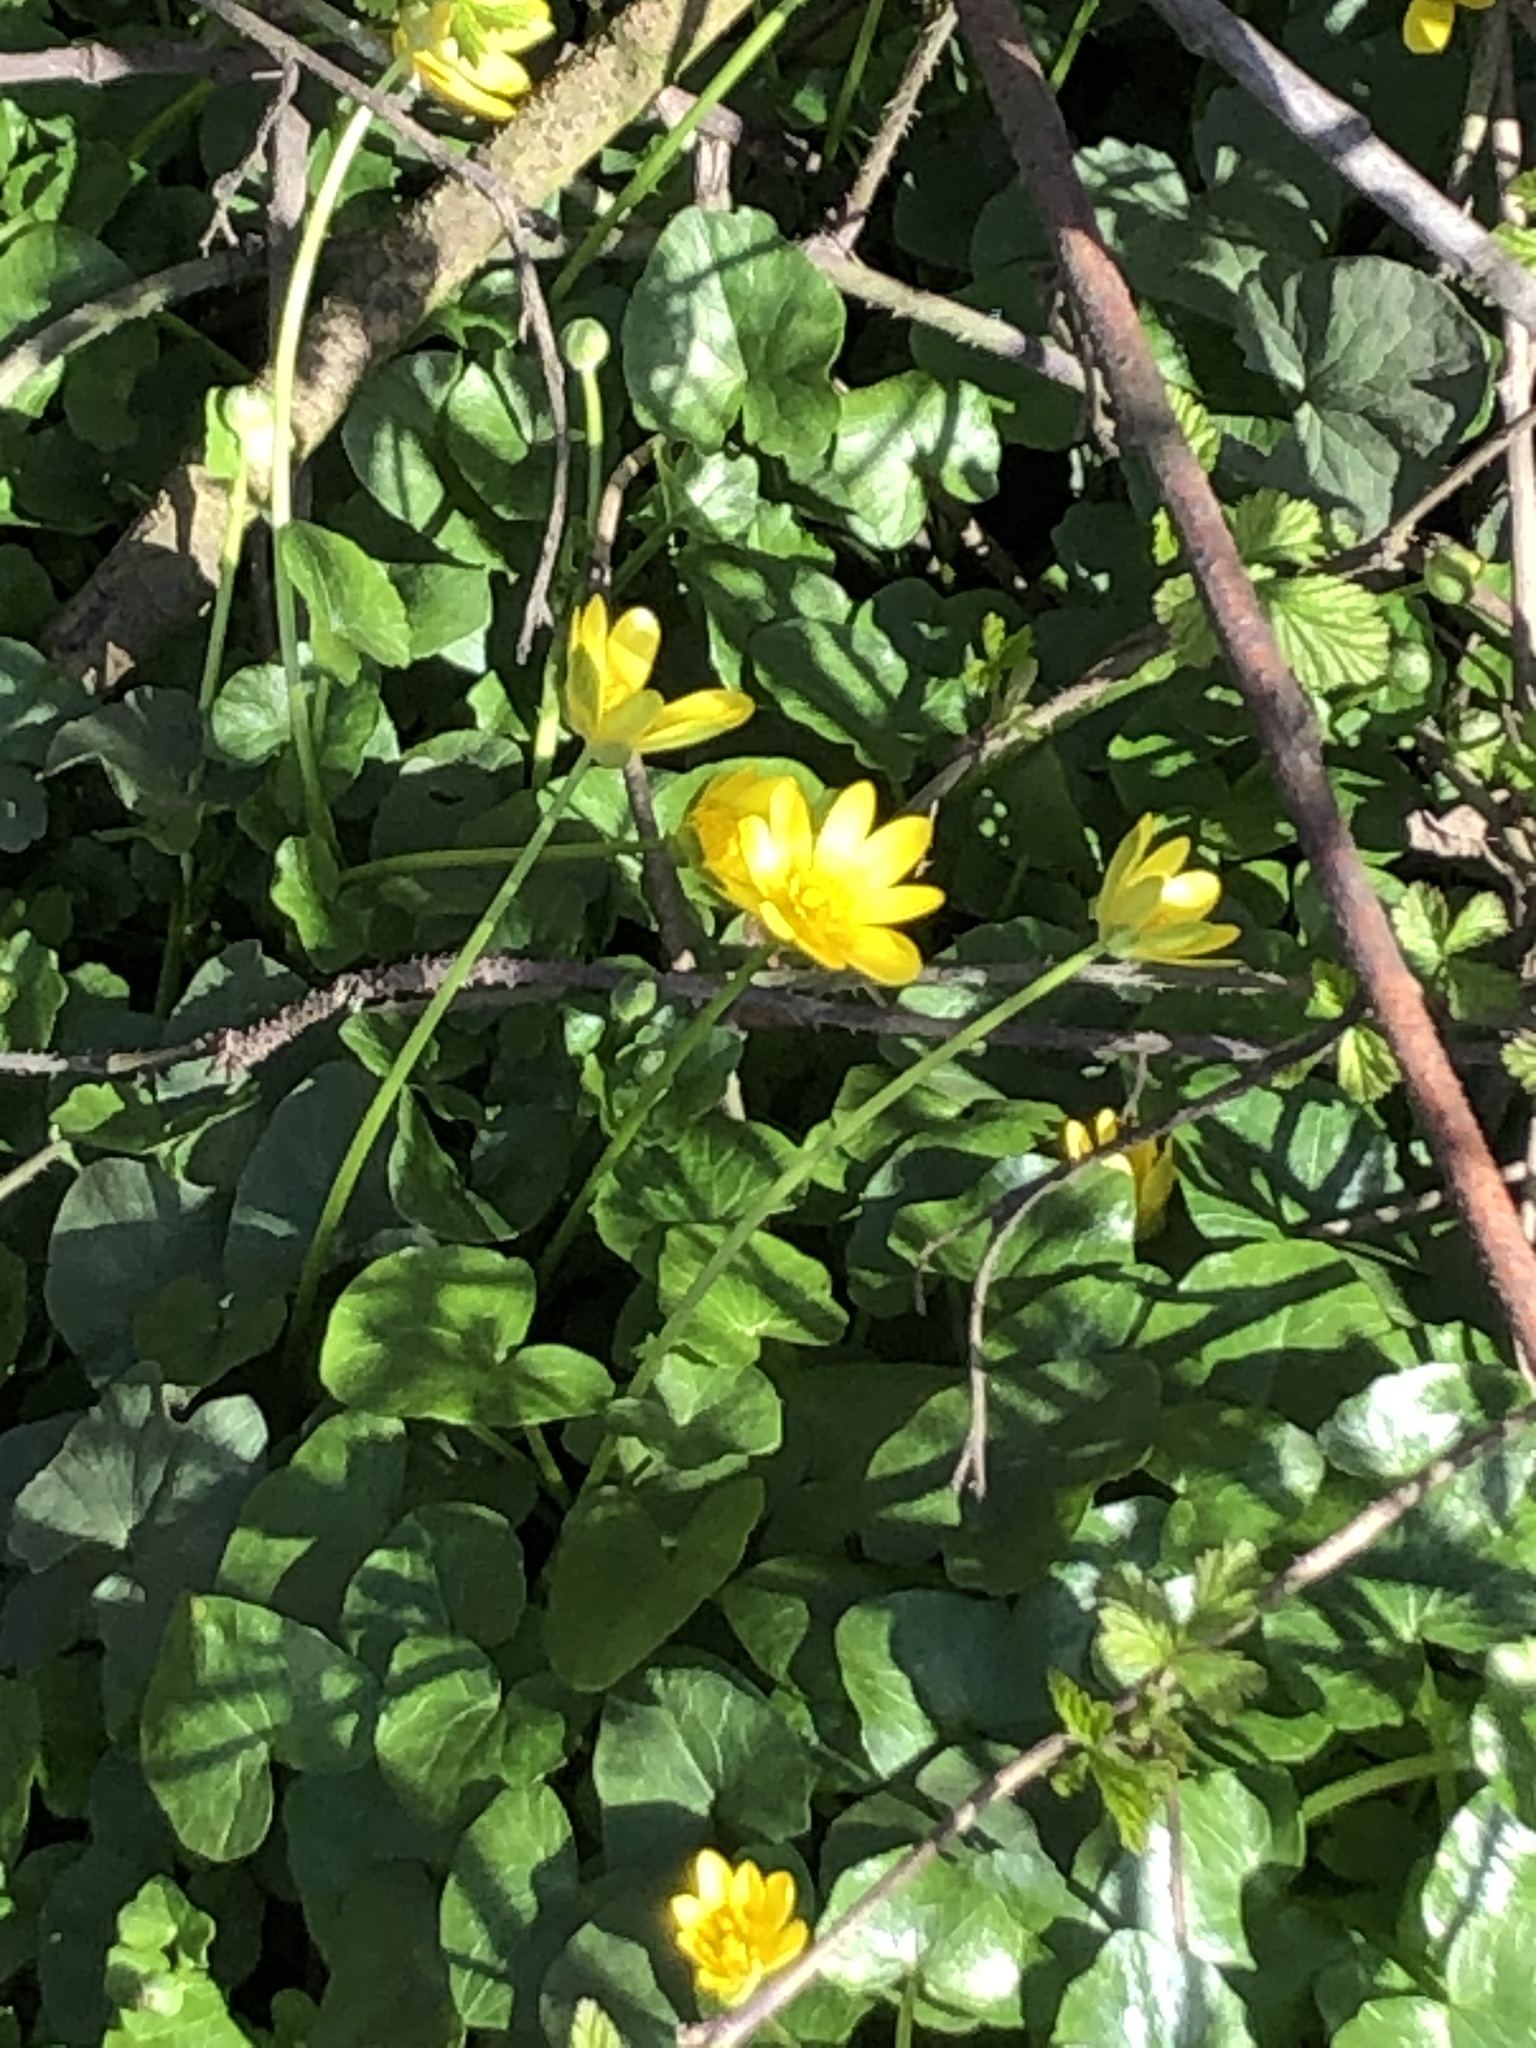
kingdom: Plantae
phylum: Tracheophyta
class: Magnoliopsida
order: Ranunculales
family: Ranunculaceae
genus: Ficaria
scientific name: Ficaria verna
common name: Lesser celandine
